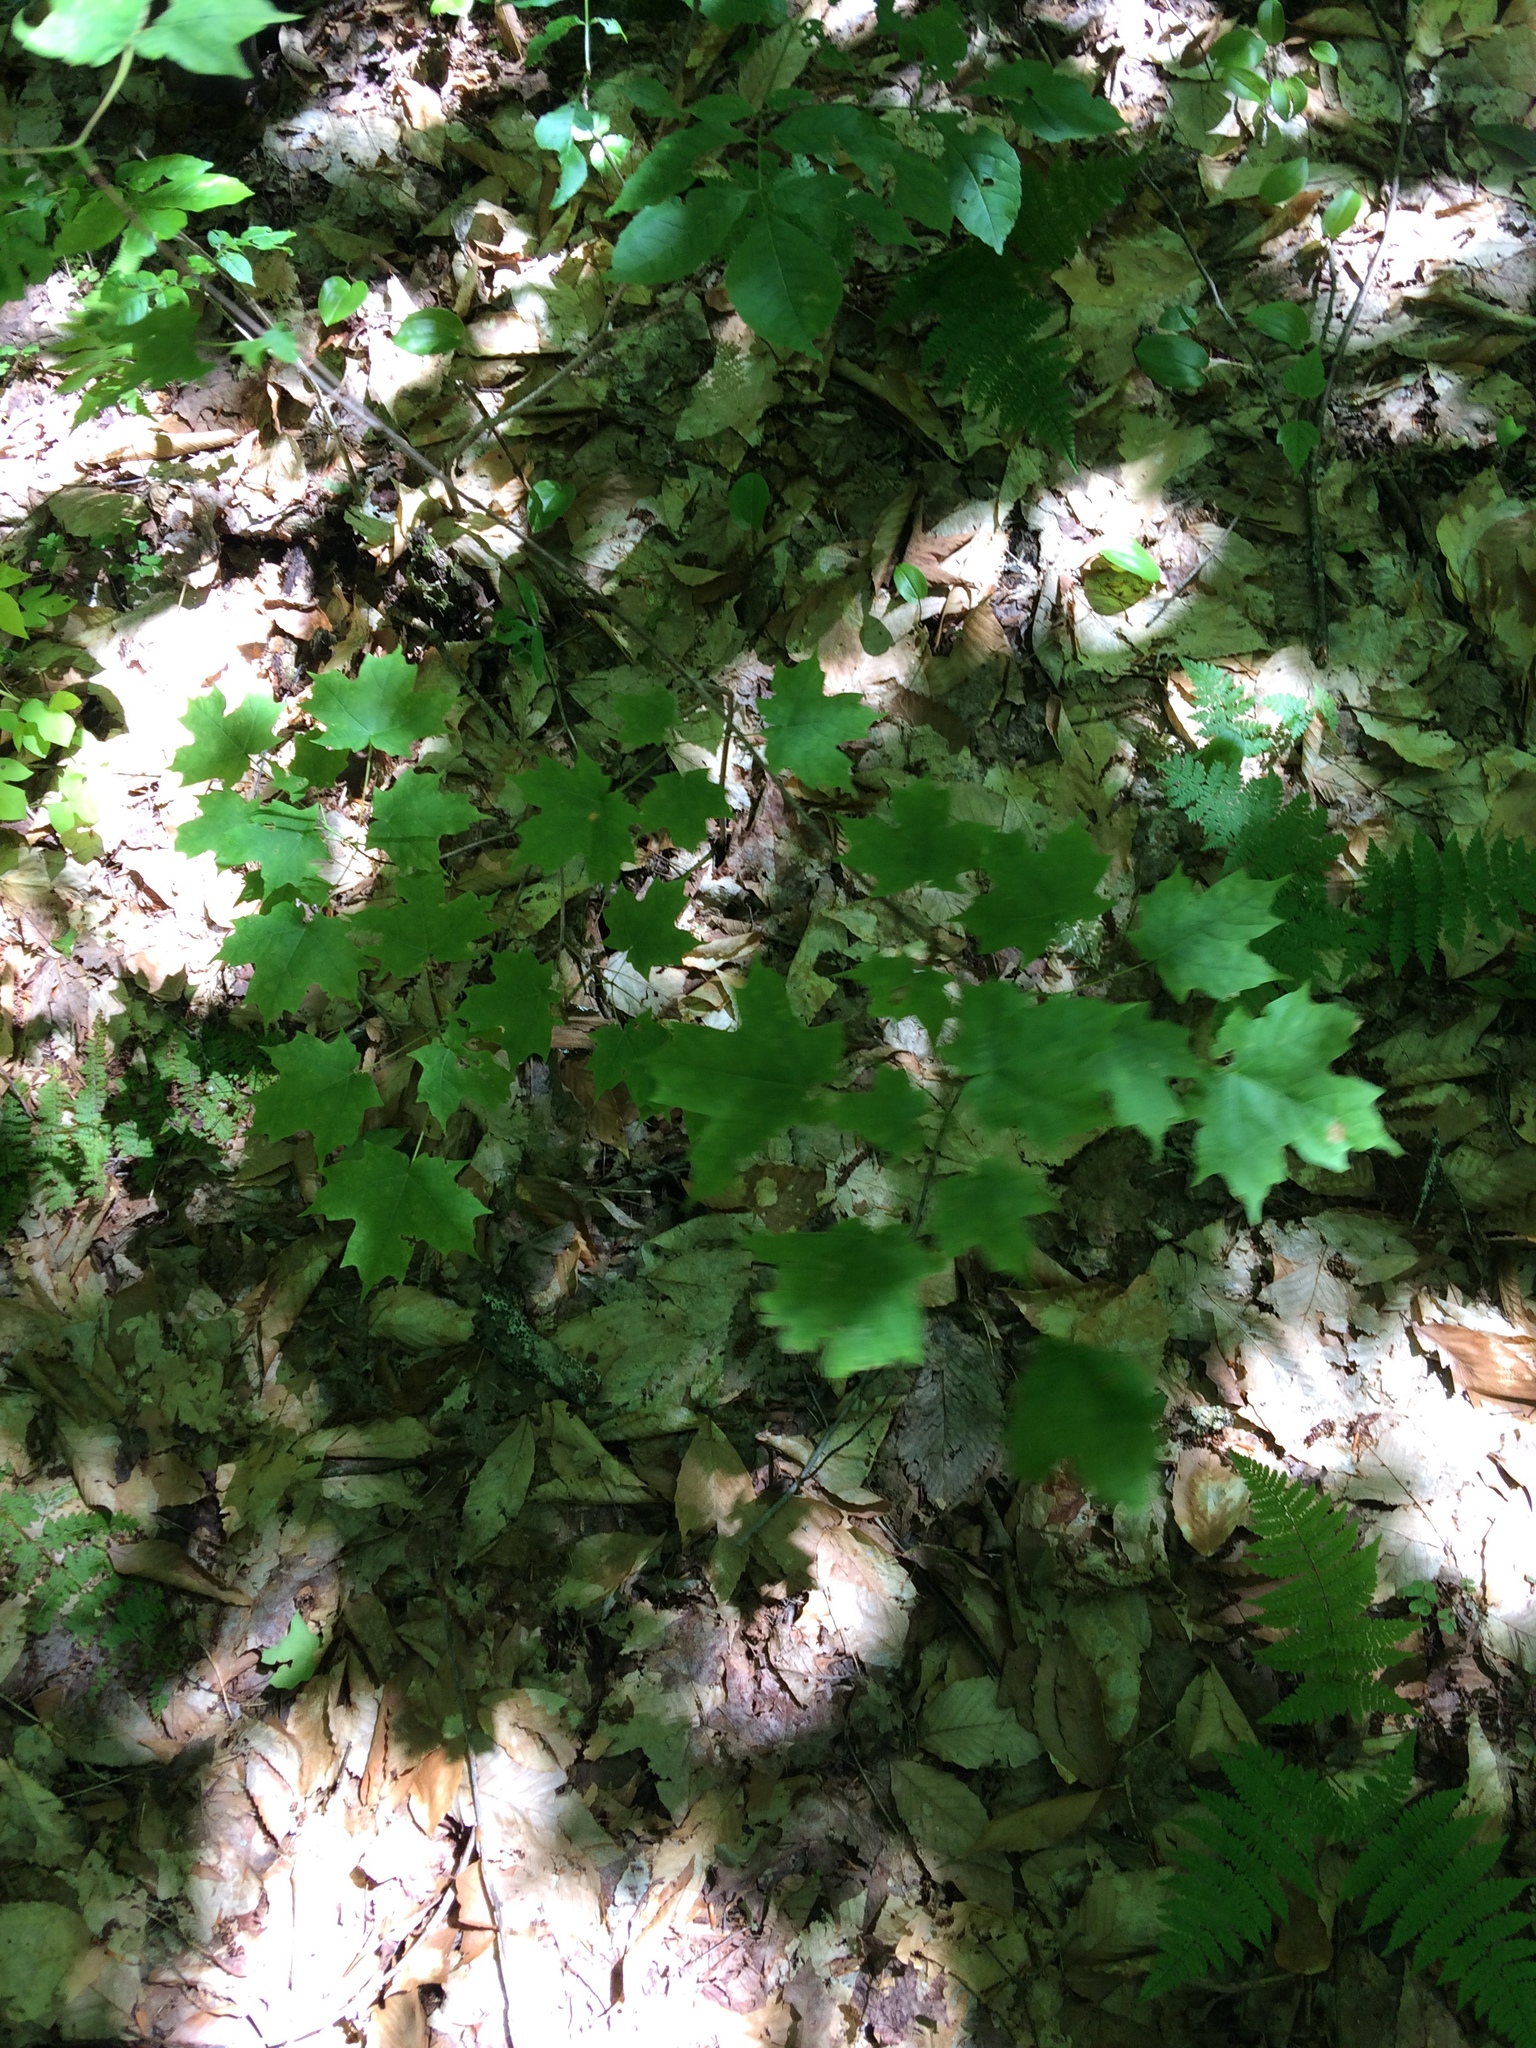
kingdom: Plantae
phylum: Tracheophyta
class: Magnoliopsida
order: Sapindales
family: Sapindaceae
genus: Acer
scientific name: Acer saccharum
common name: Sugar maple
